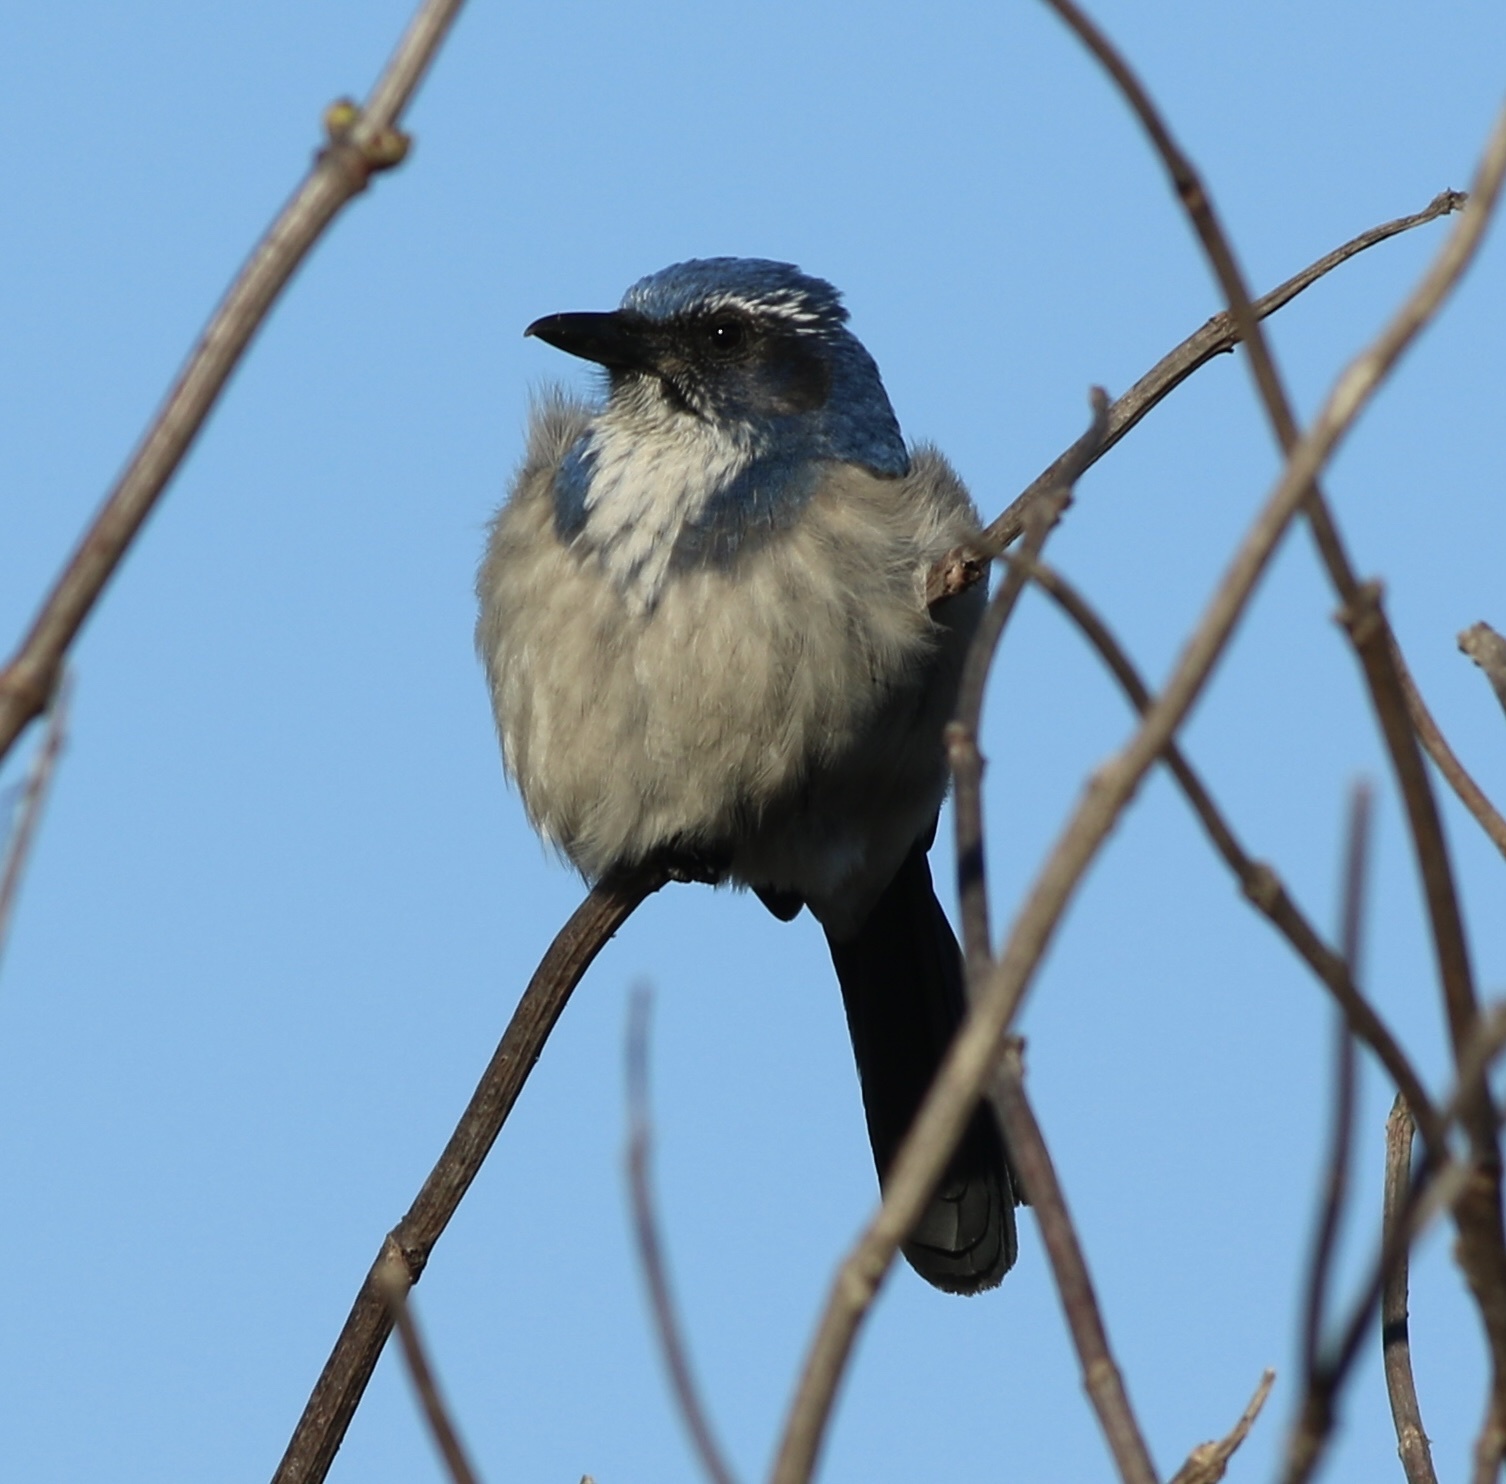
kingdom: Animalia
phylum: Chordata
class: Aves
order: Passeriformes
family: Corvidae
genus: Aphelocoma
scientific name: Aphelocoma californica
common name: California scrub-jay
